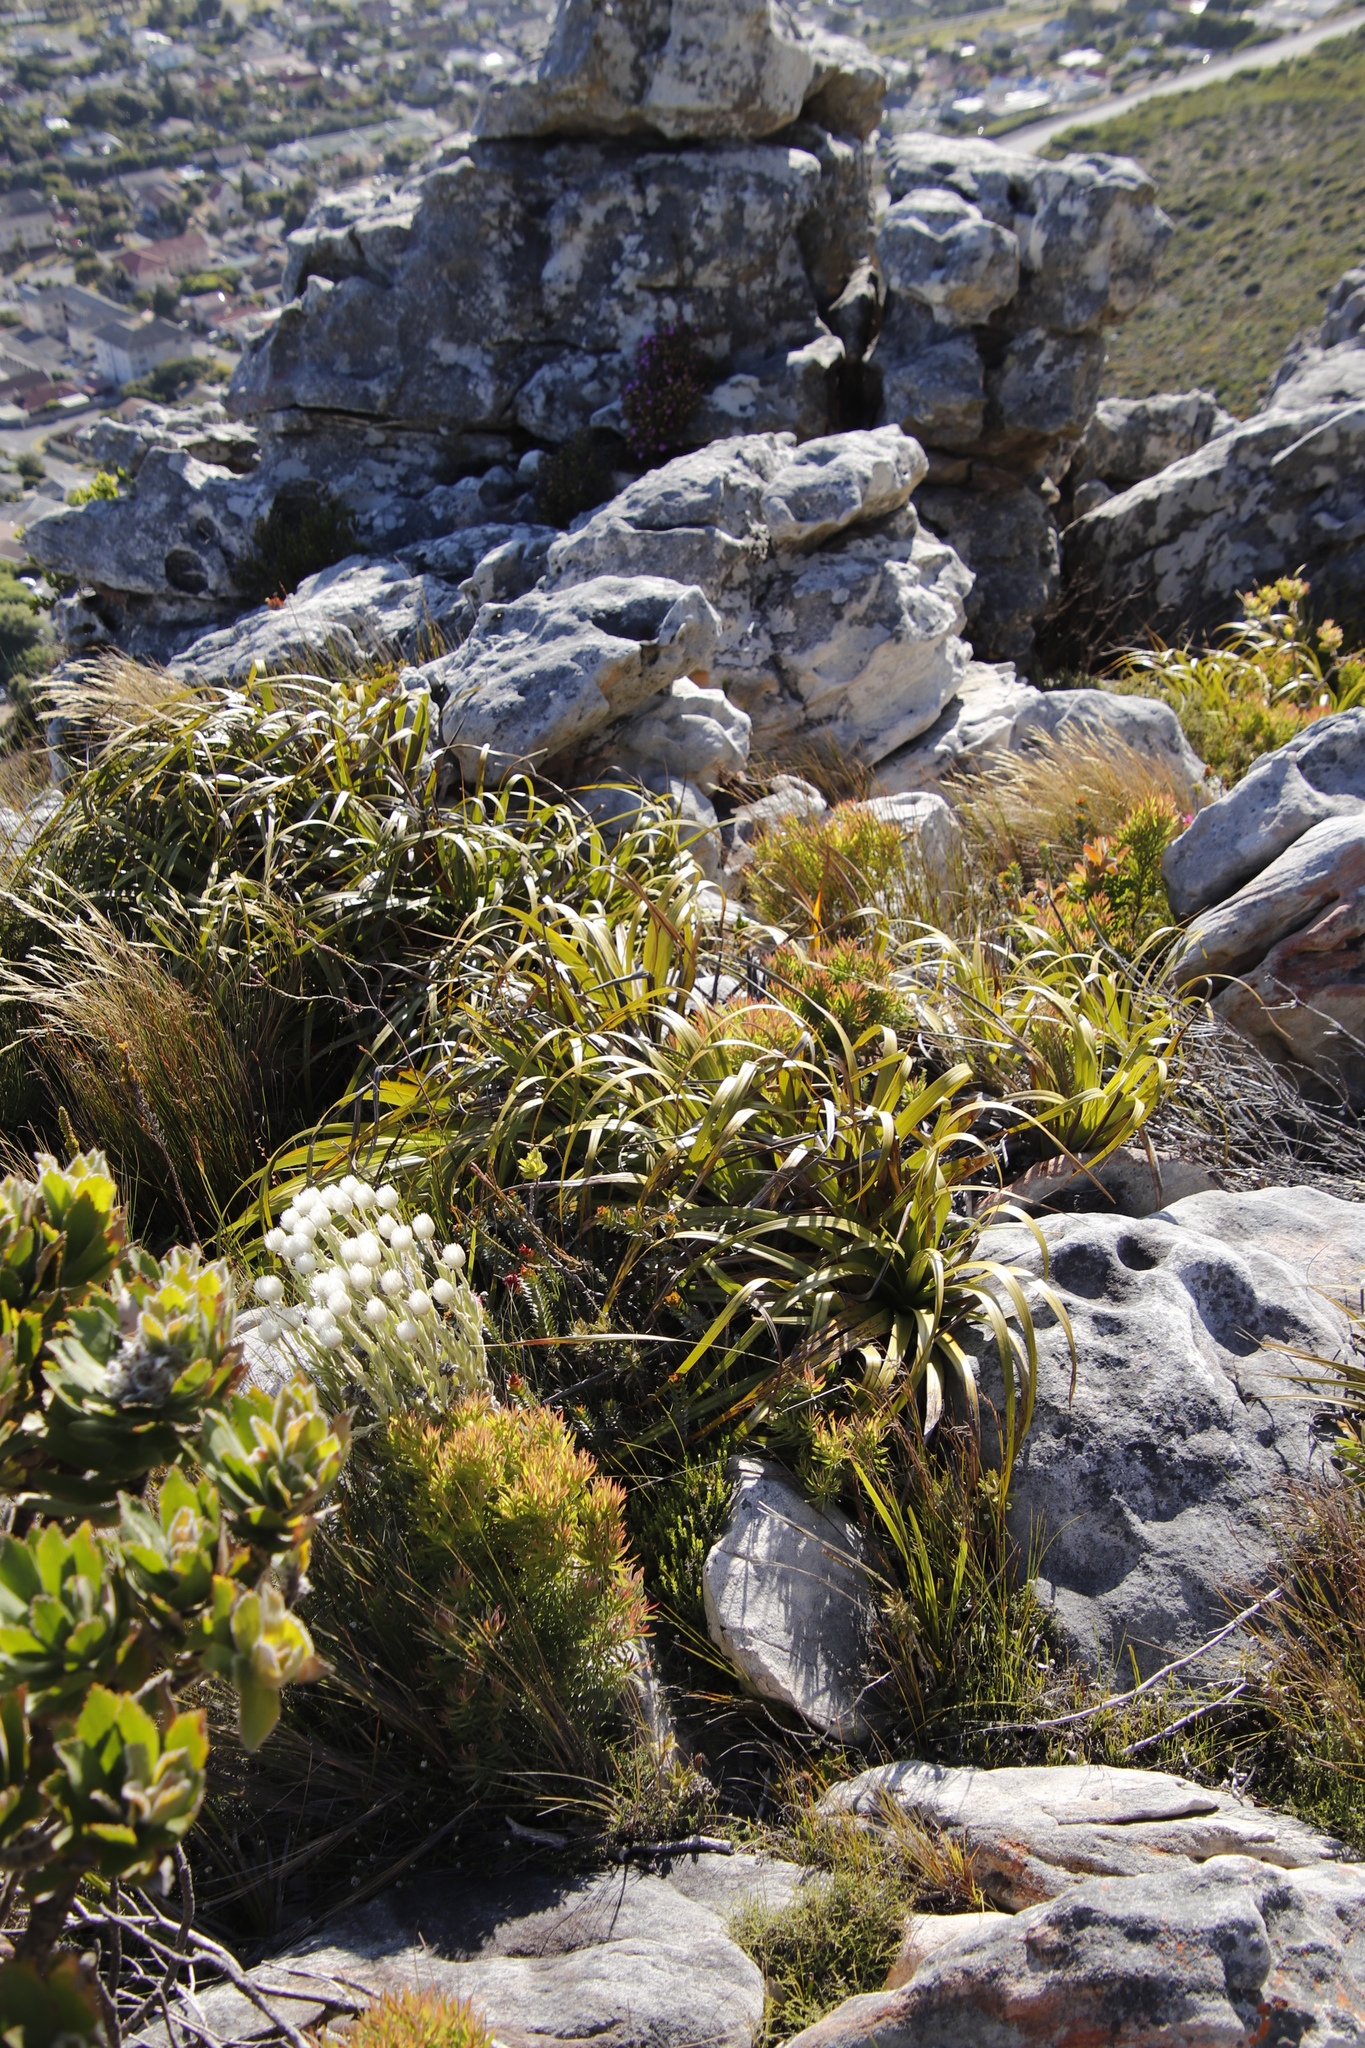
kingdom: Plantae
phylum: Tracheophyta
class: Liliopsida
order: Poales
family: Cyperaceae
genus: Tetraria
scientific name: Tetraria thermalis
